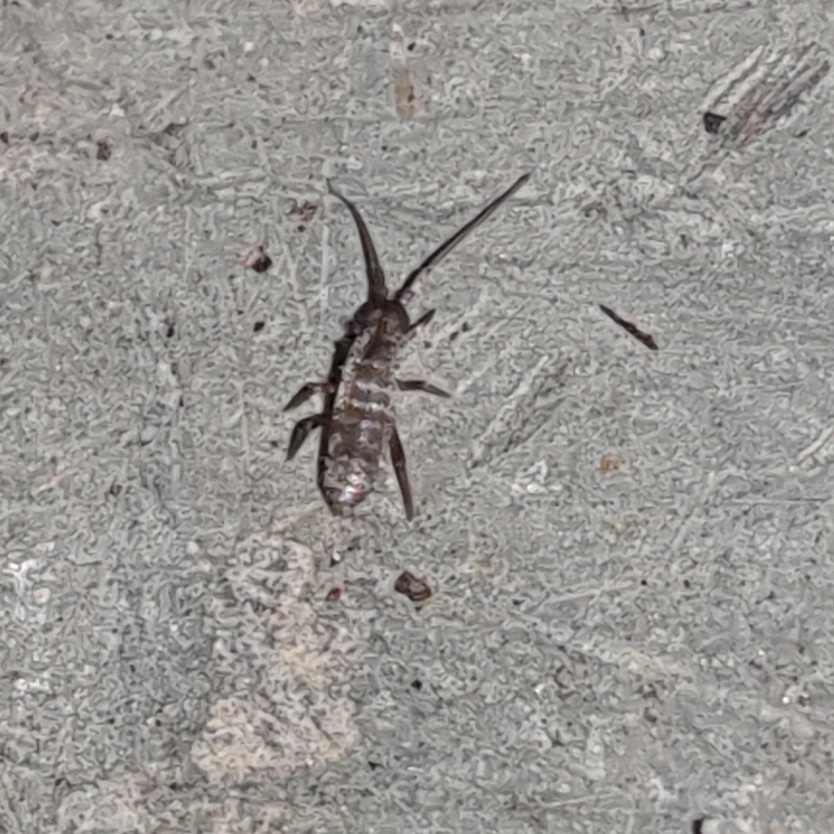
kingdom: Animalia
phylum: Arthropoda
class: Collembola
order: Entomobryomorpha
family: Tomoceridae
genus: Tomocerus
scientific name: Tomocerus vulgaris
